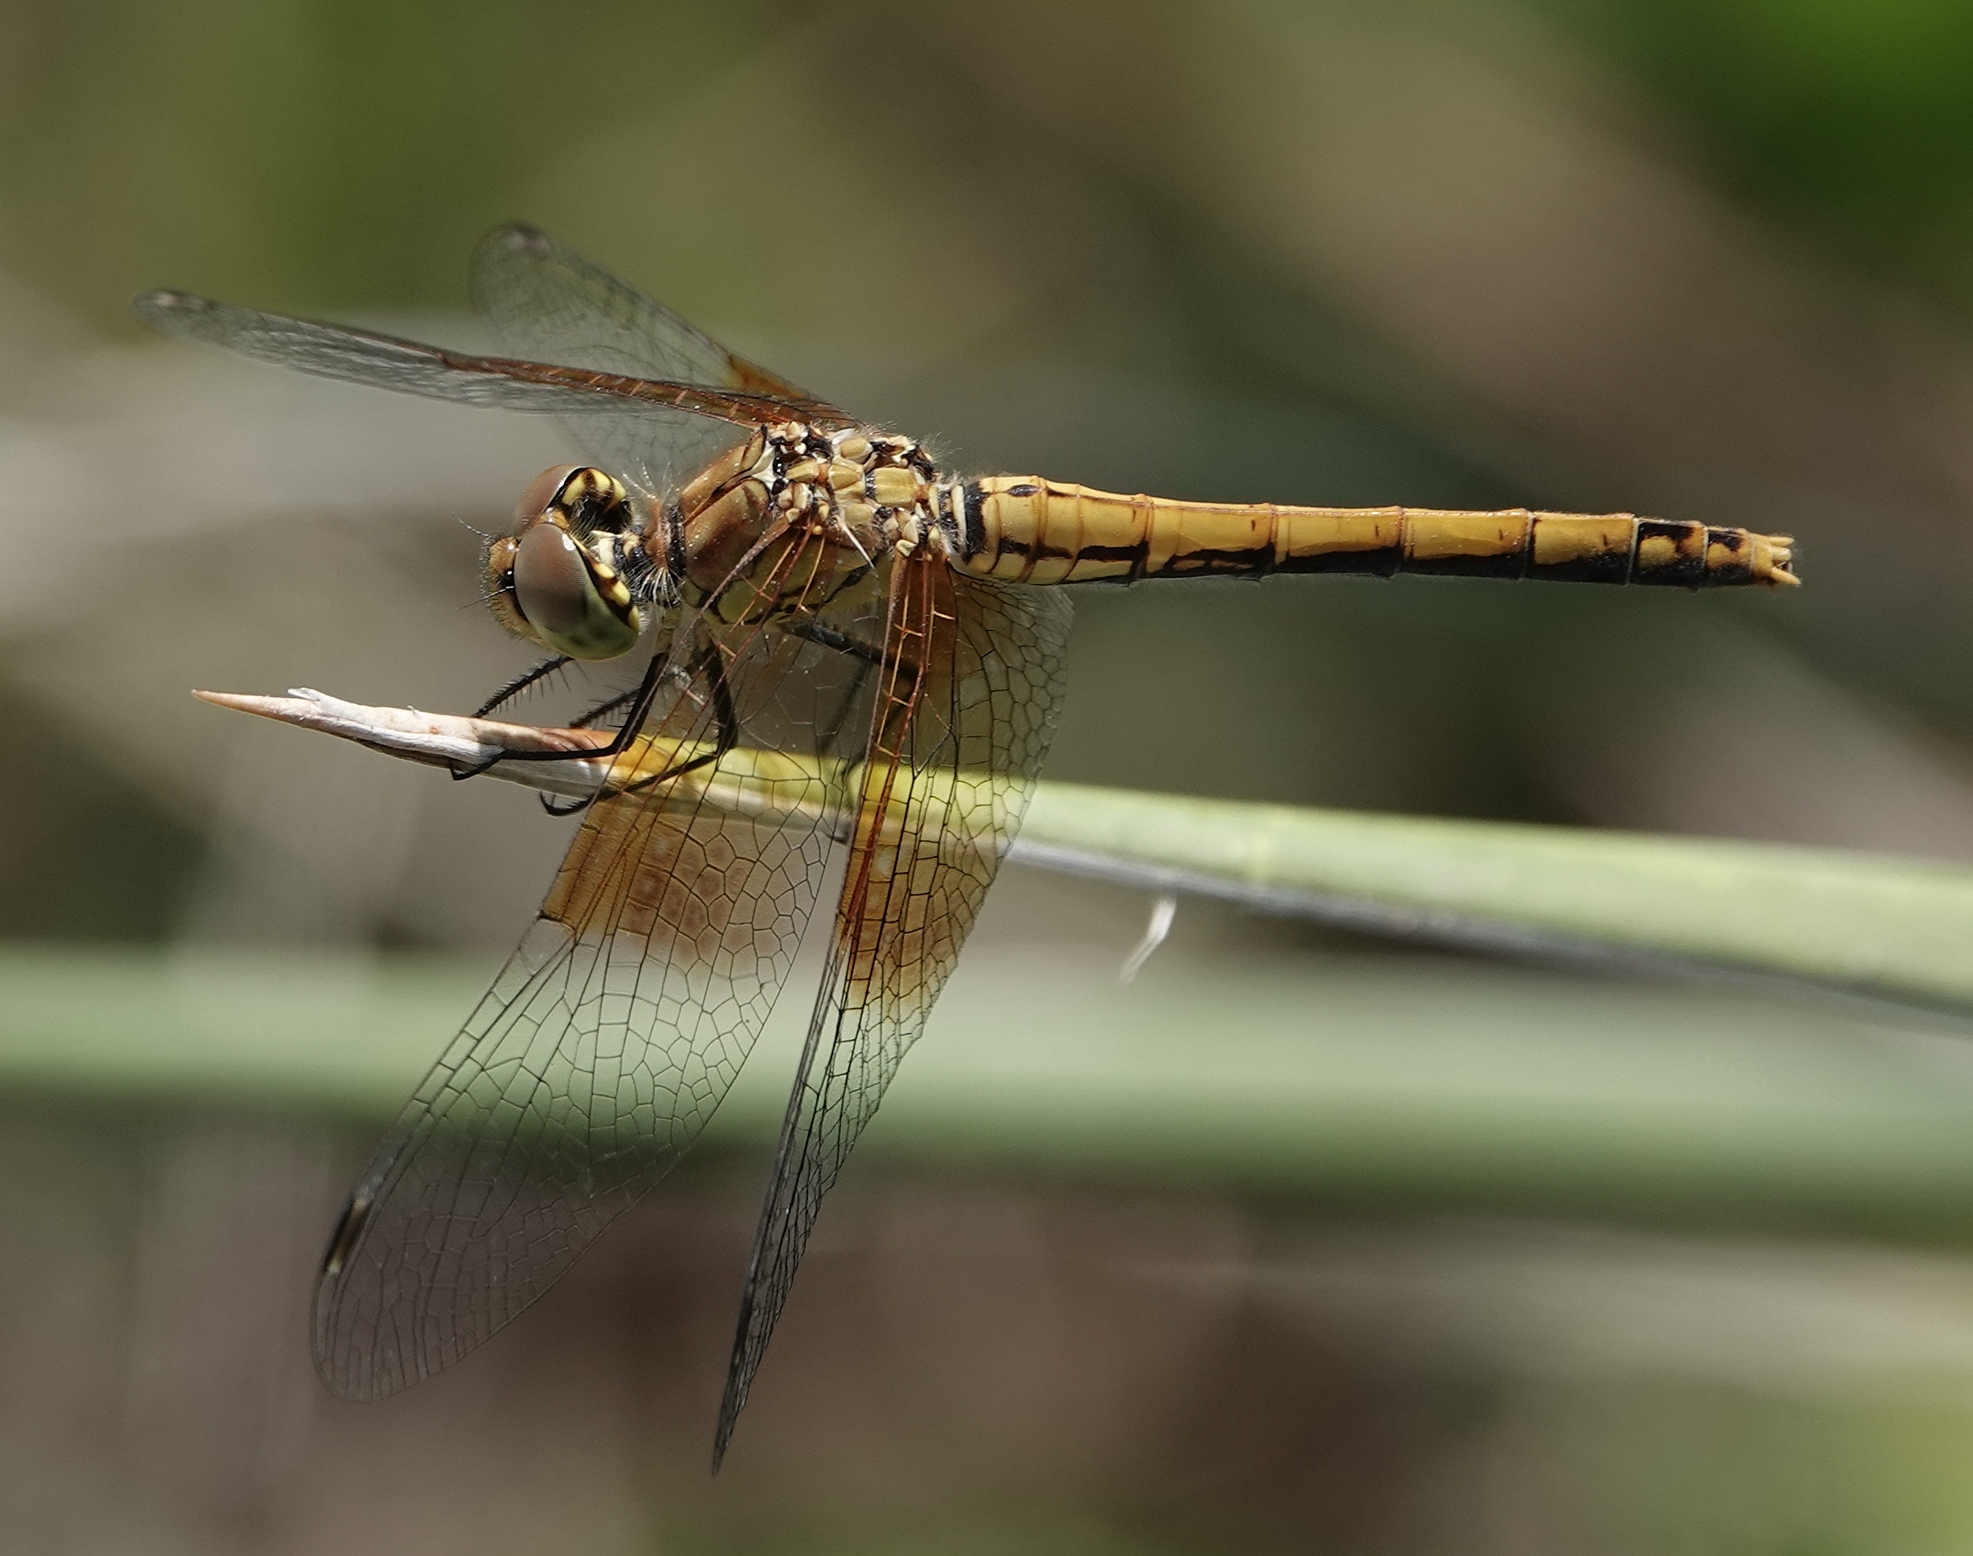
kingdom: Animalia
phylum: Arthropoda
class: Insecta
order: Odonata
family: Libellulidae
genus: Sympetrum
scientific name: Sympetrum semicinctum
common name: Band-winged meadowhawk
